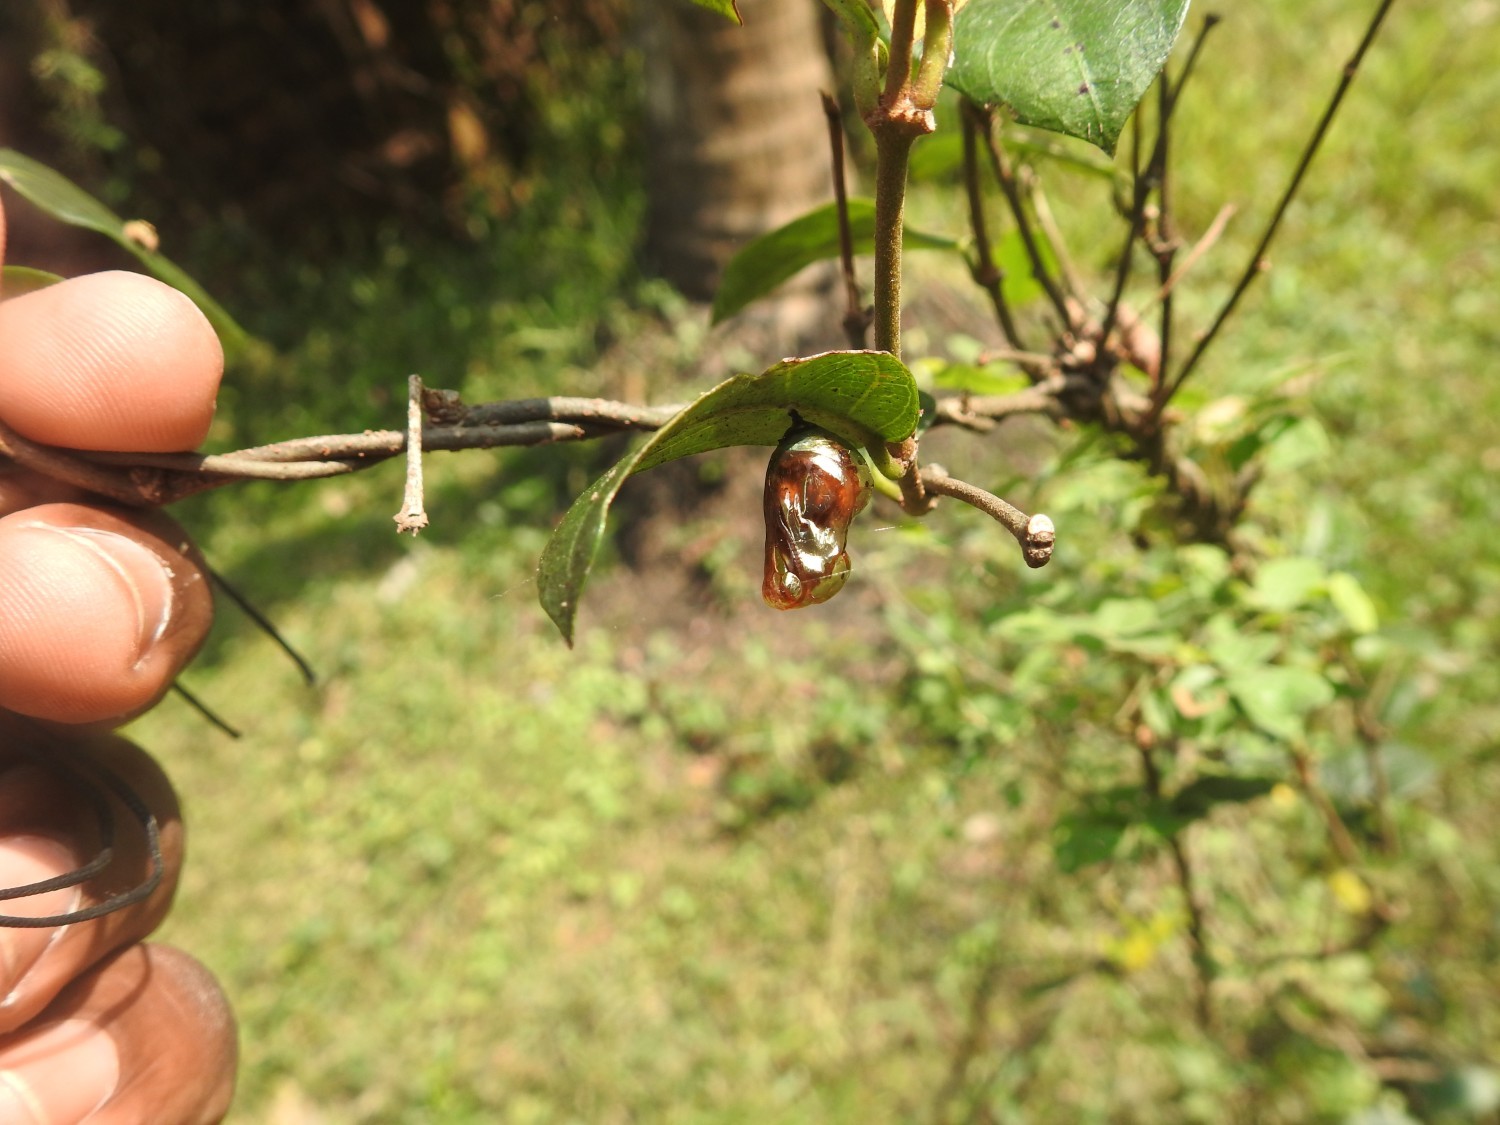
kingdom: Animalia
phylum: Arthropoda
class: Insecta
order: Lepidoptera
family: Nymphalidae
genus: Euploea
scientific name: Euploea core
